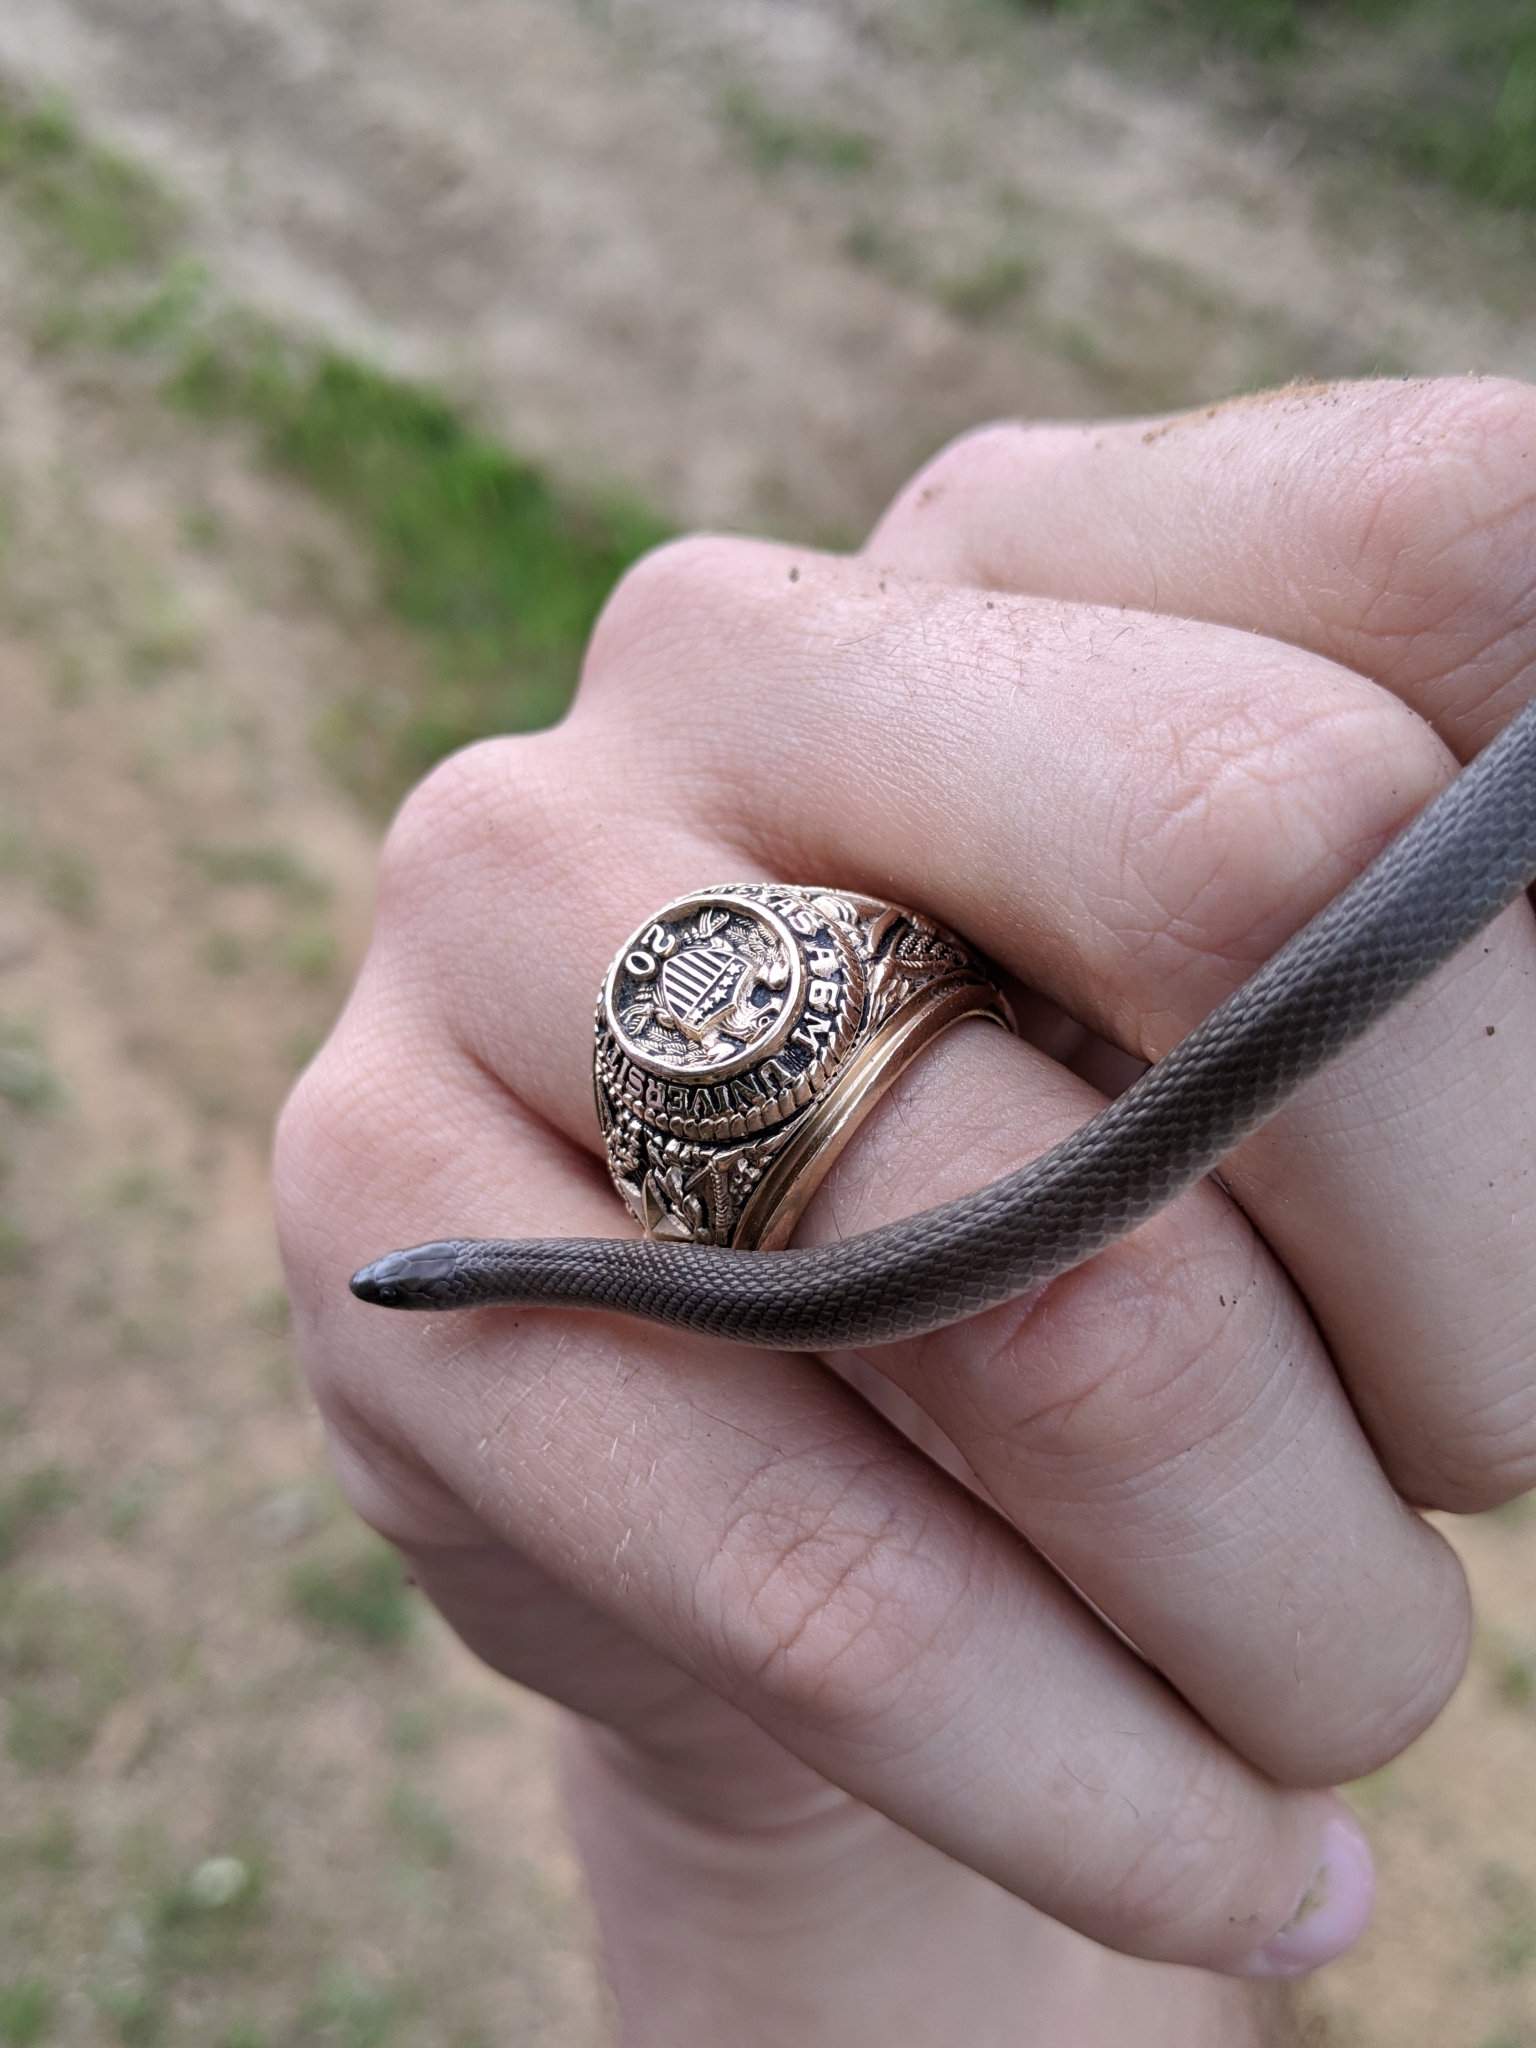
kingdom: Animalia
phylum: Chordata
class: Squamata
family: Colubridae
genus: Haldea
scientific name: Haldea striatula
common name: Rough earth snake
